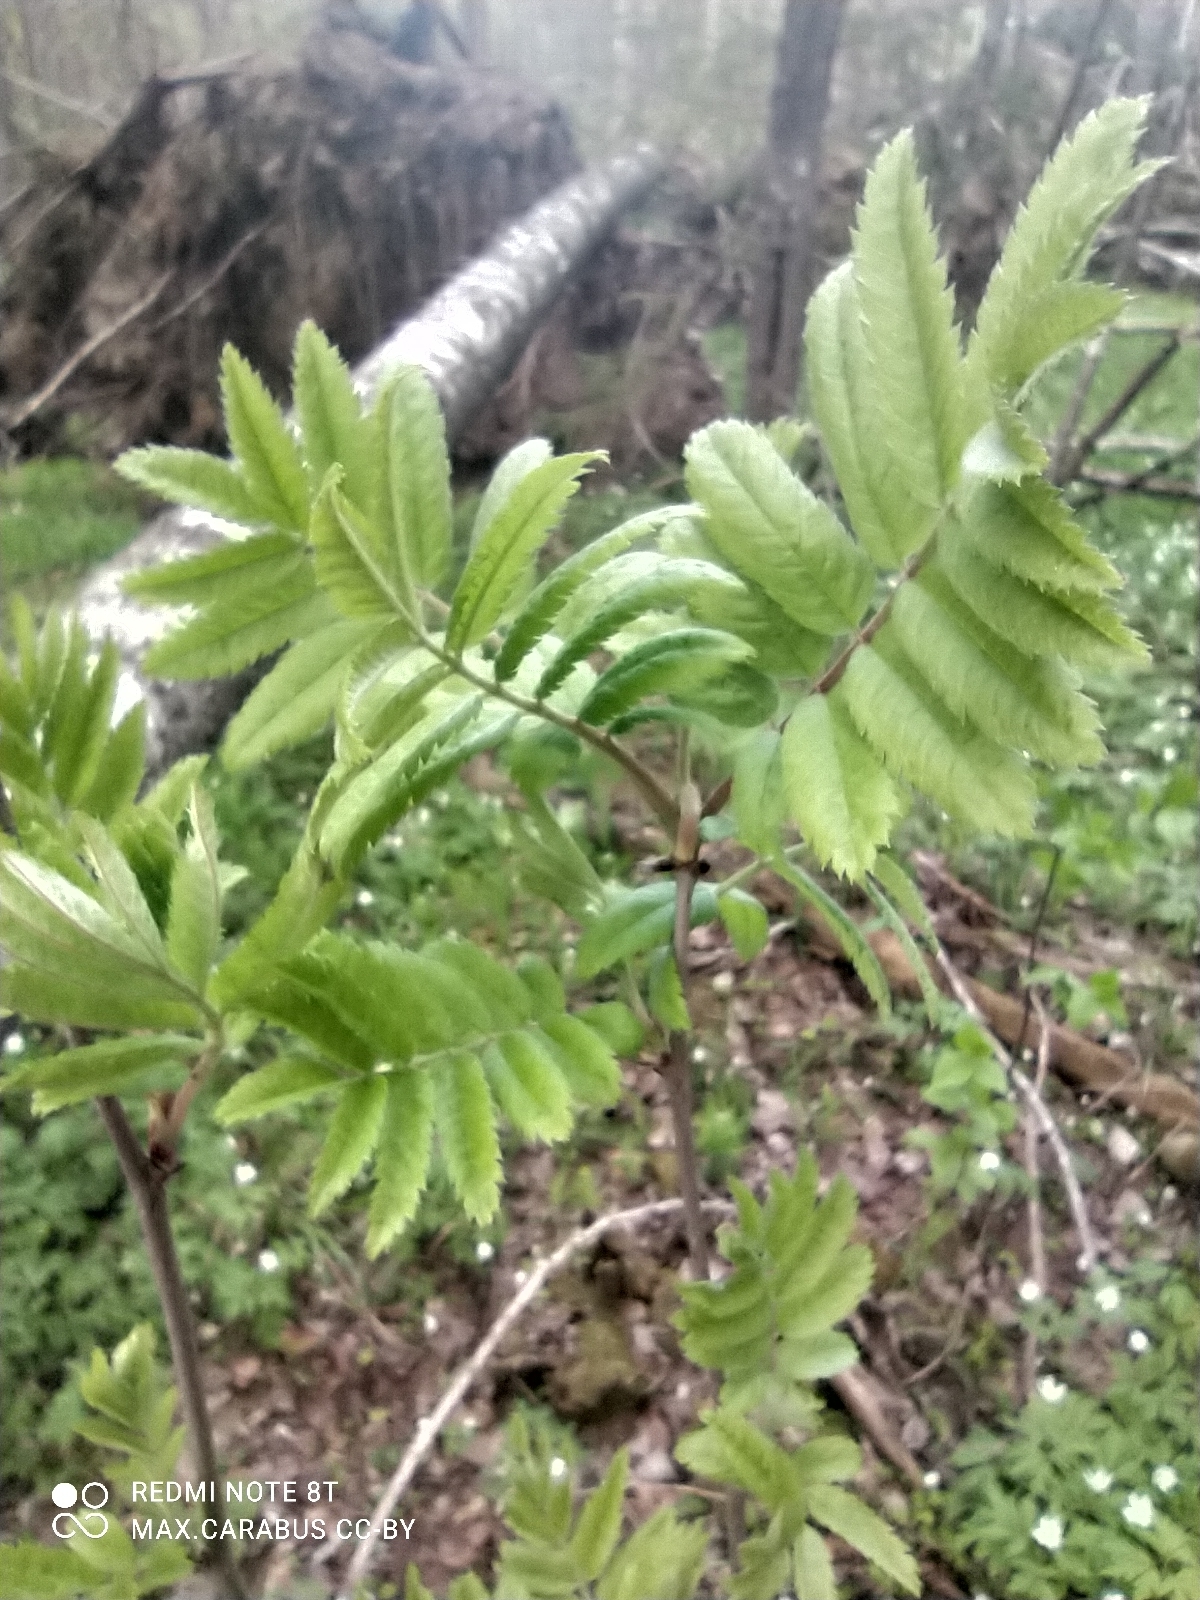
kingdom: Plantae
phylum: Tracheophyta
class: Magnoliopsida
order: Rosales
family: Rosaceae
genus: Sorbus
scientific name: Sorbus aucuparia
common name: Rowan
